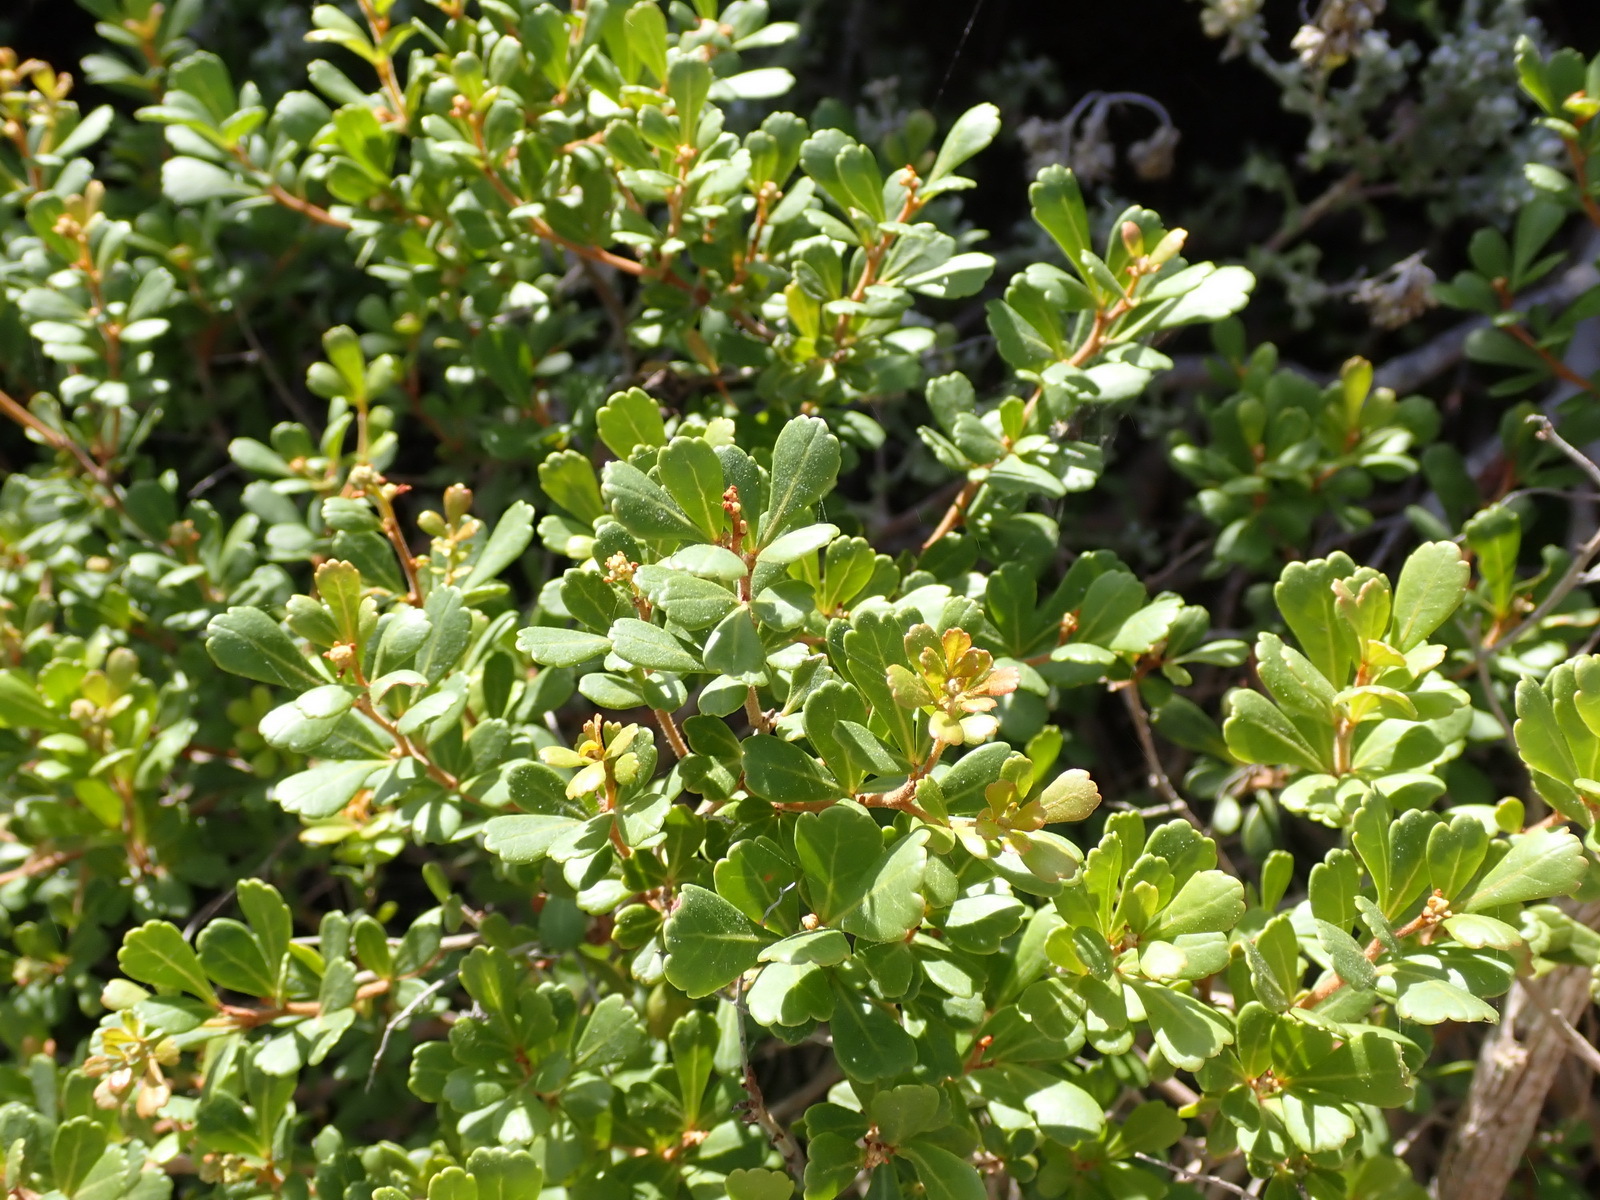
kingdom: Plantae
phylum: Tracheophyta
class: Magnoliopsida
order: Sapindales
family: Anacardiaceae
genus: Searsia
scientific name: Searsia crenata
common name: Crowberry
